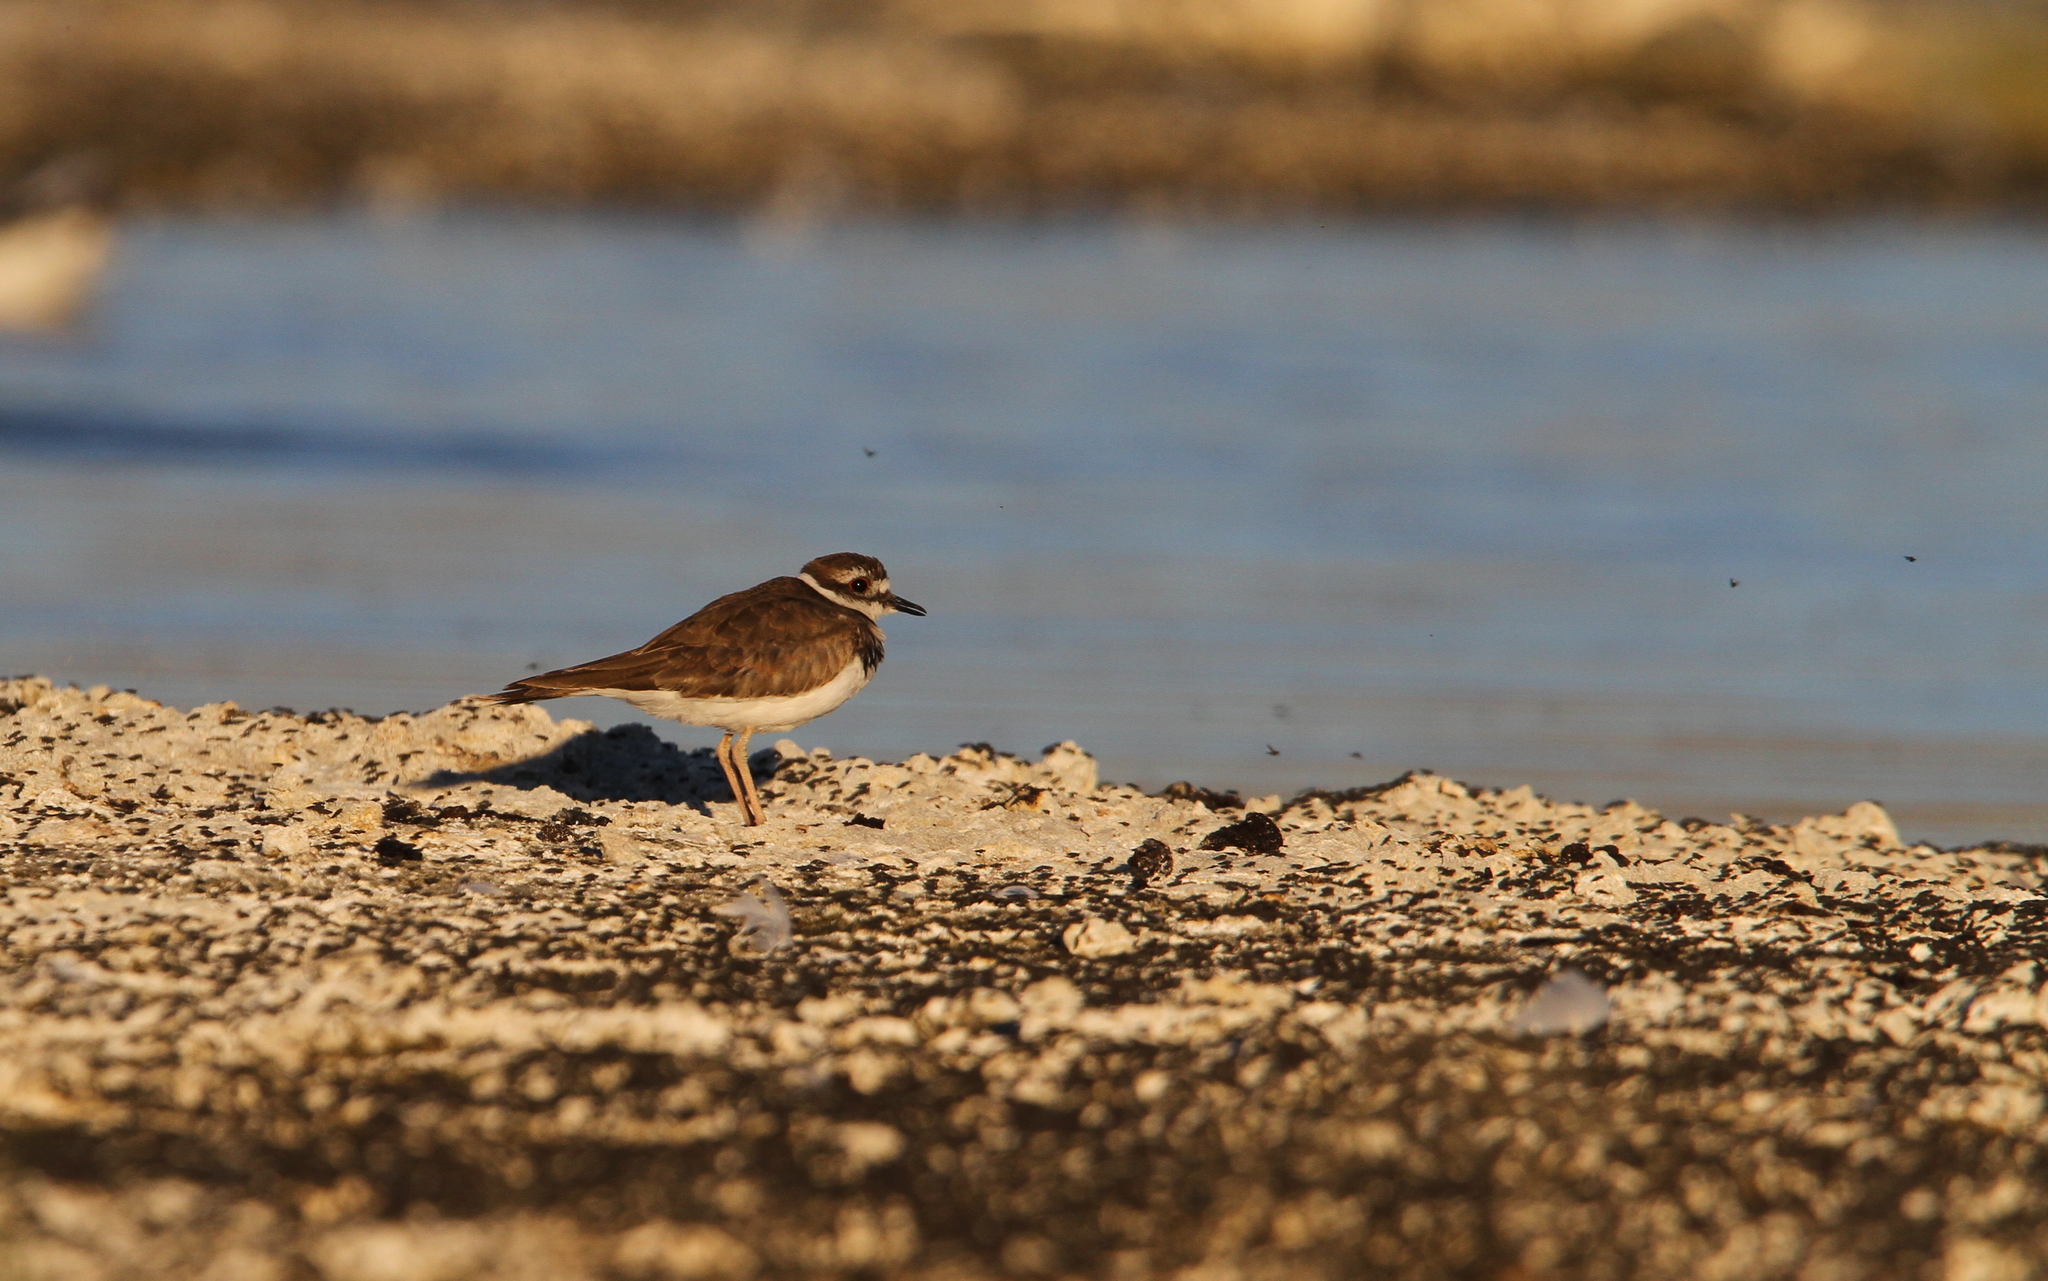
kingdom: Animalia
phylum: Chordata
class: Aves
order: Charadriiformes
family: Charadriidae
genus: Charadrius
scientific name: Charadrius vociferus
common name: Killdeer
